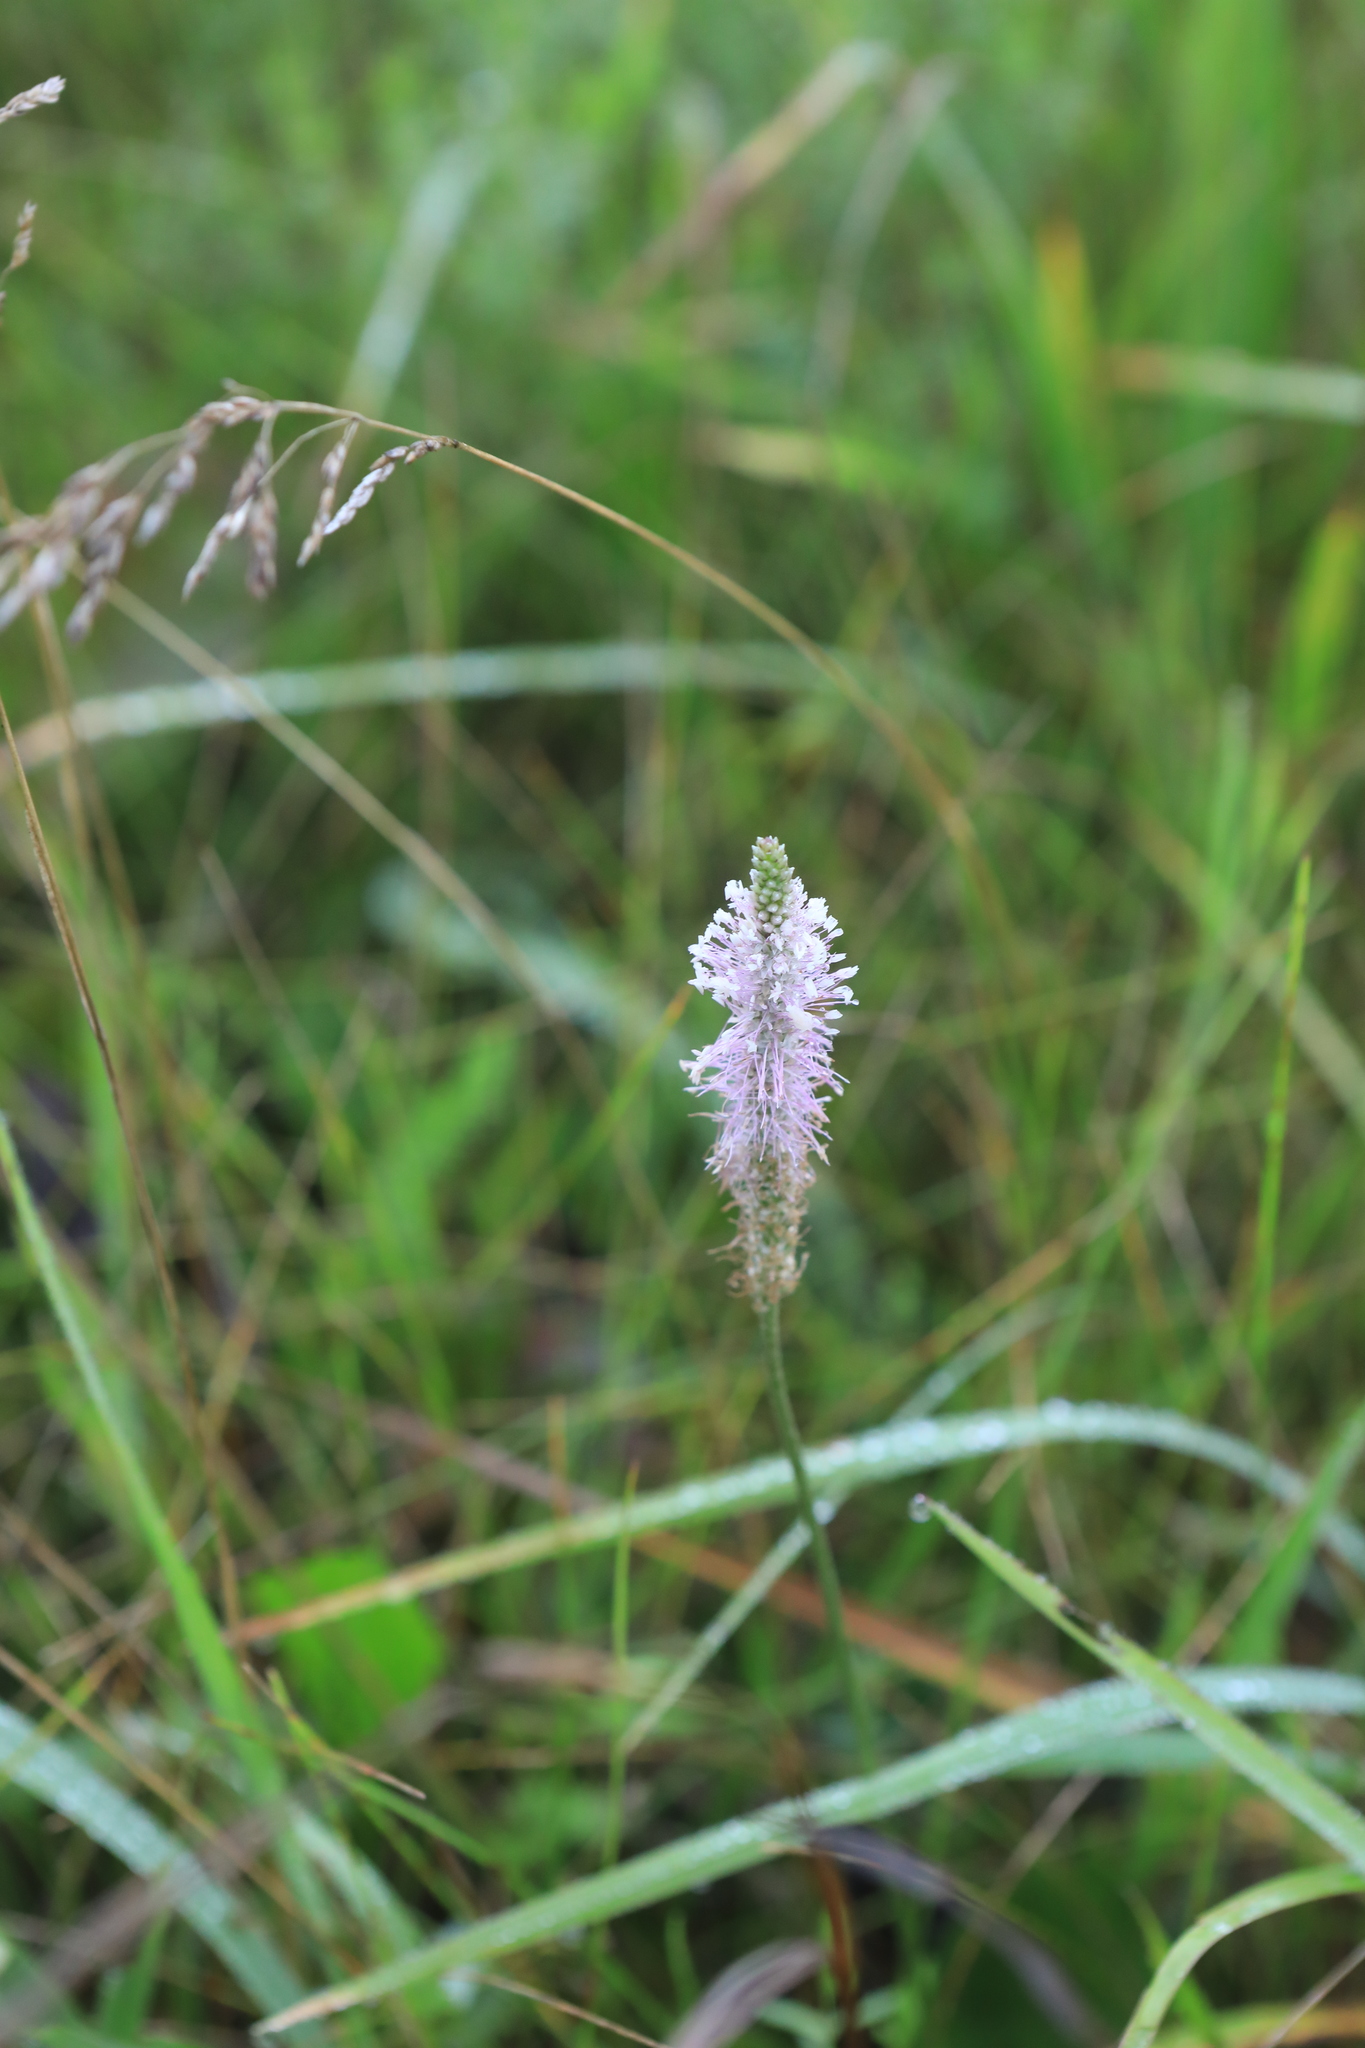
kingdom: Plantae
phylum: Tracheophyta
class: Magnoliopsida
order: Lamiales
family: Plantaginaceae
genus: Plantago
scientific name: Plantago media
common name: Hoary plantain
